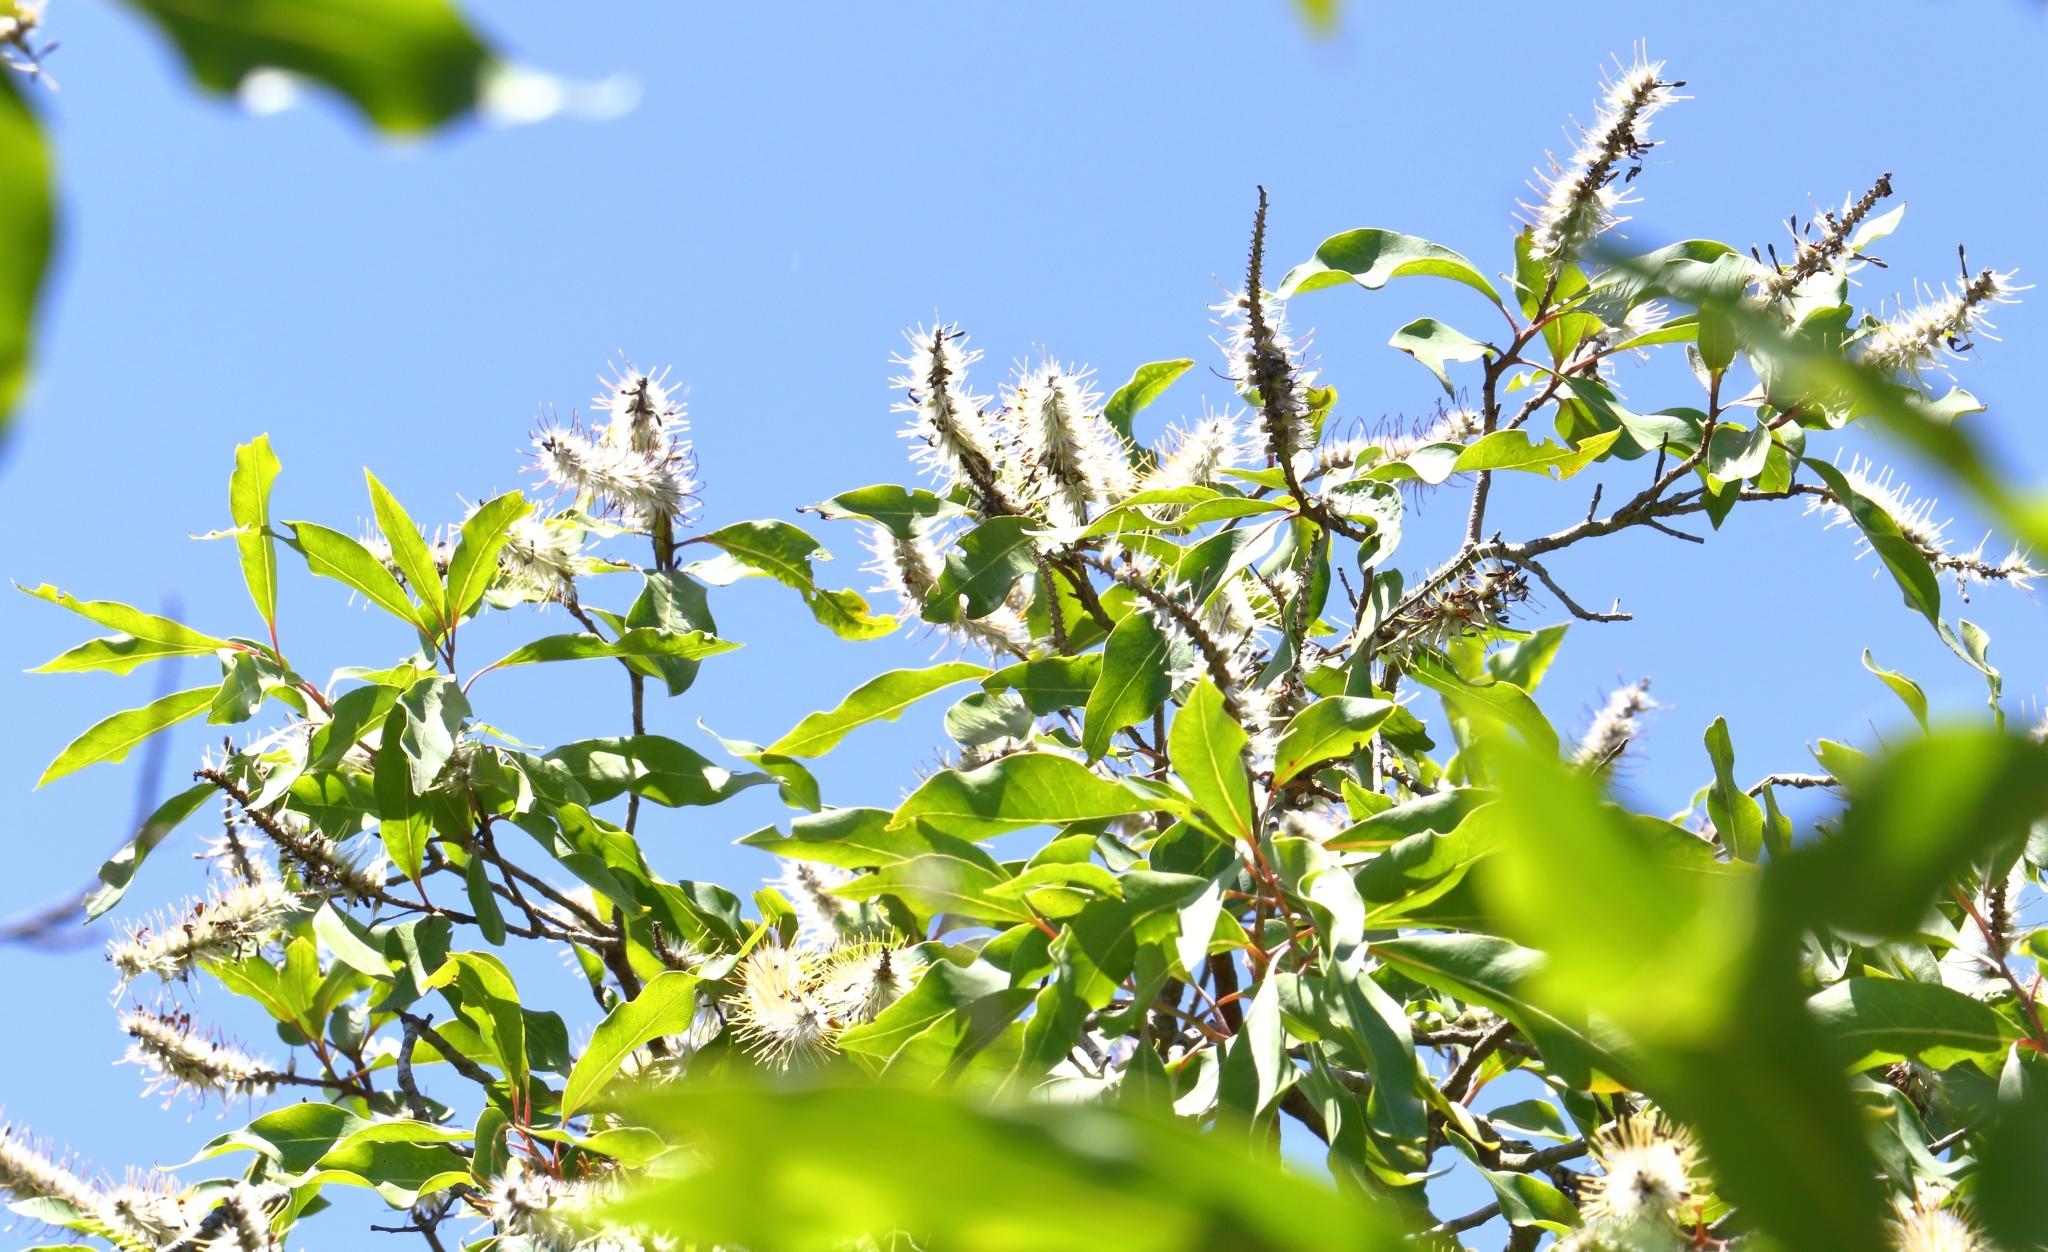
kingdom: Plantae
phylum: Tracheophyta
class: Magnoliopsida
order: Proteales
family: Proteaceae
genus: Faurea
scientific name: Faurea saligna
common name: African bean
